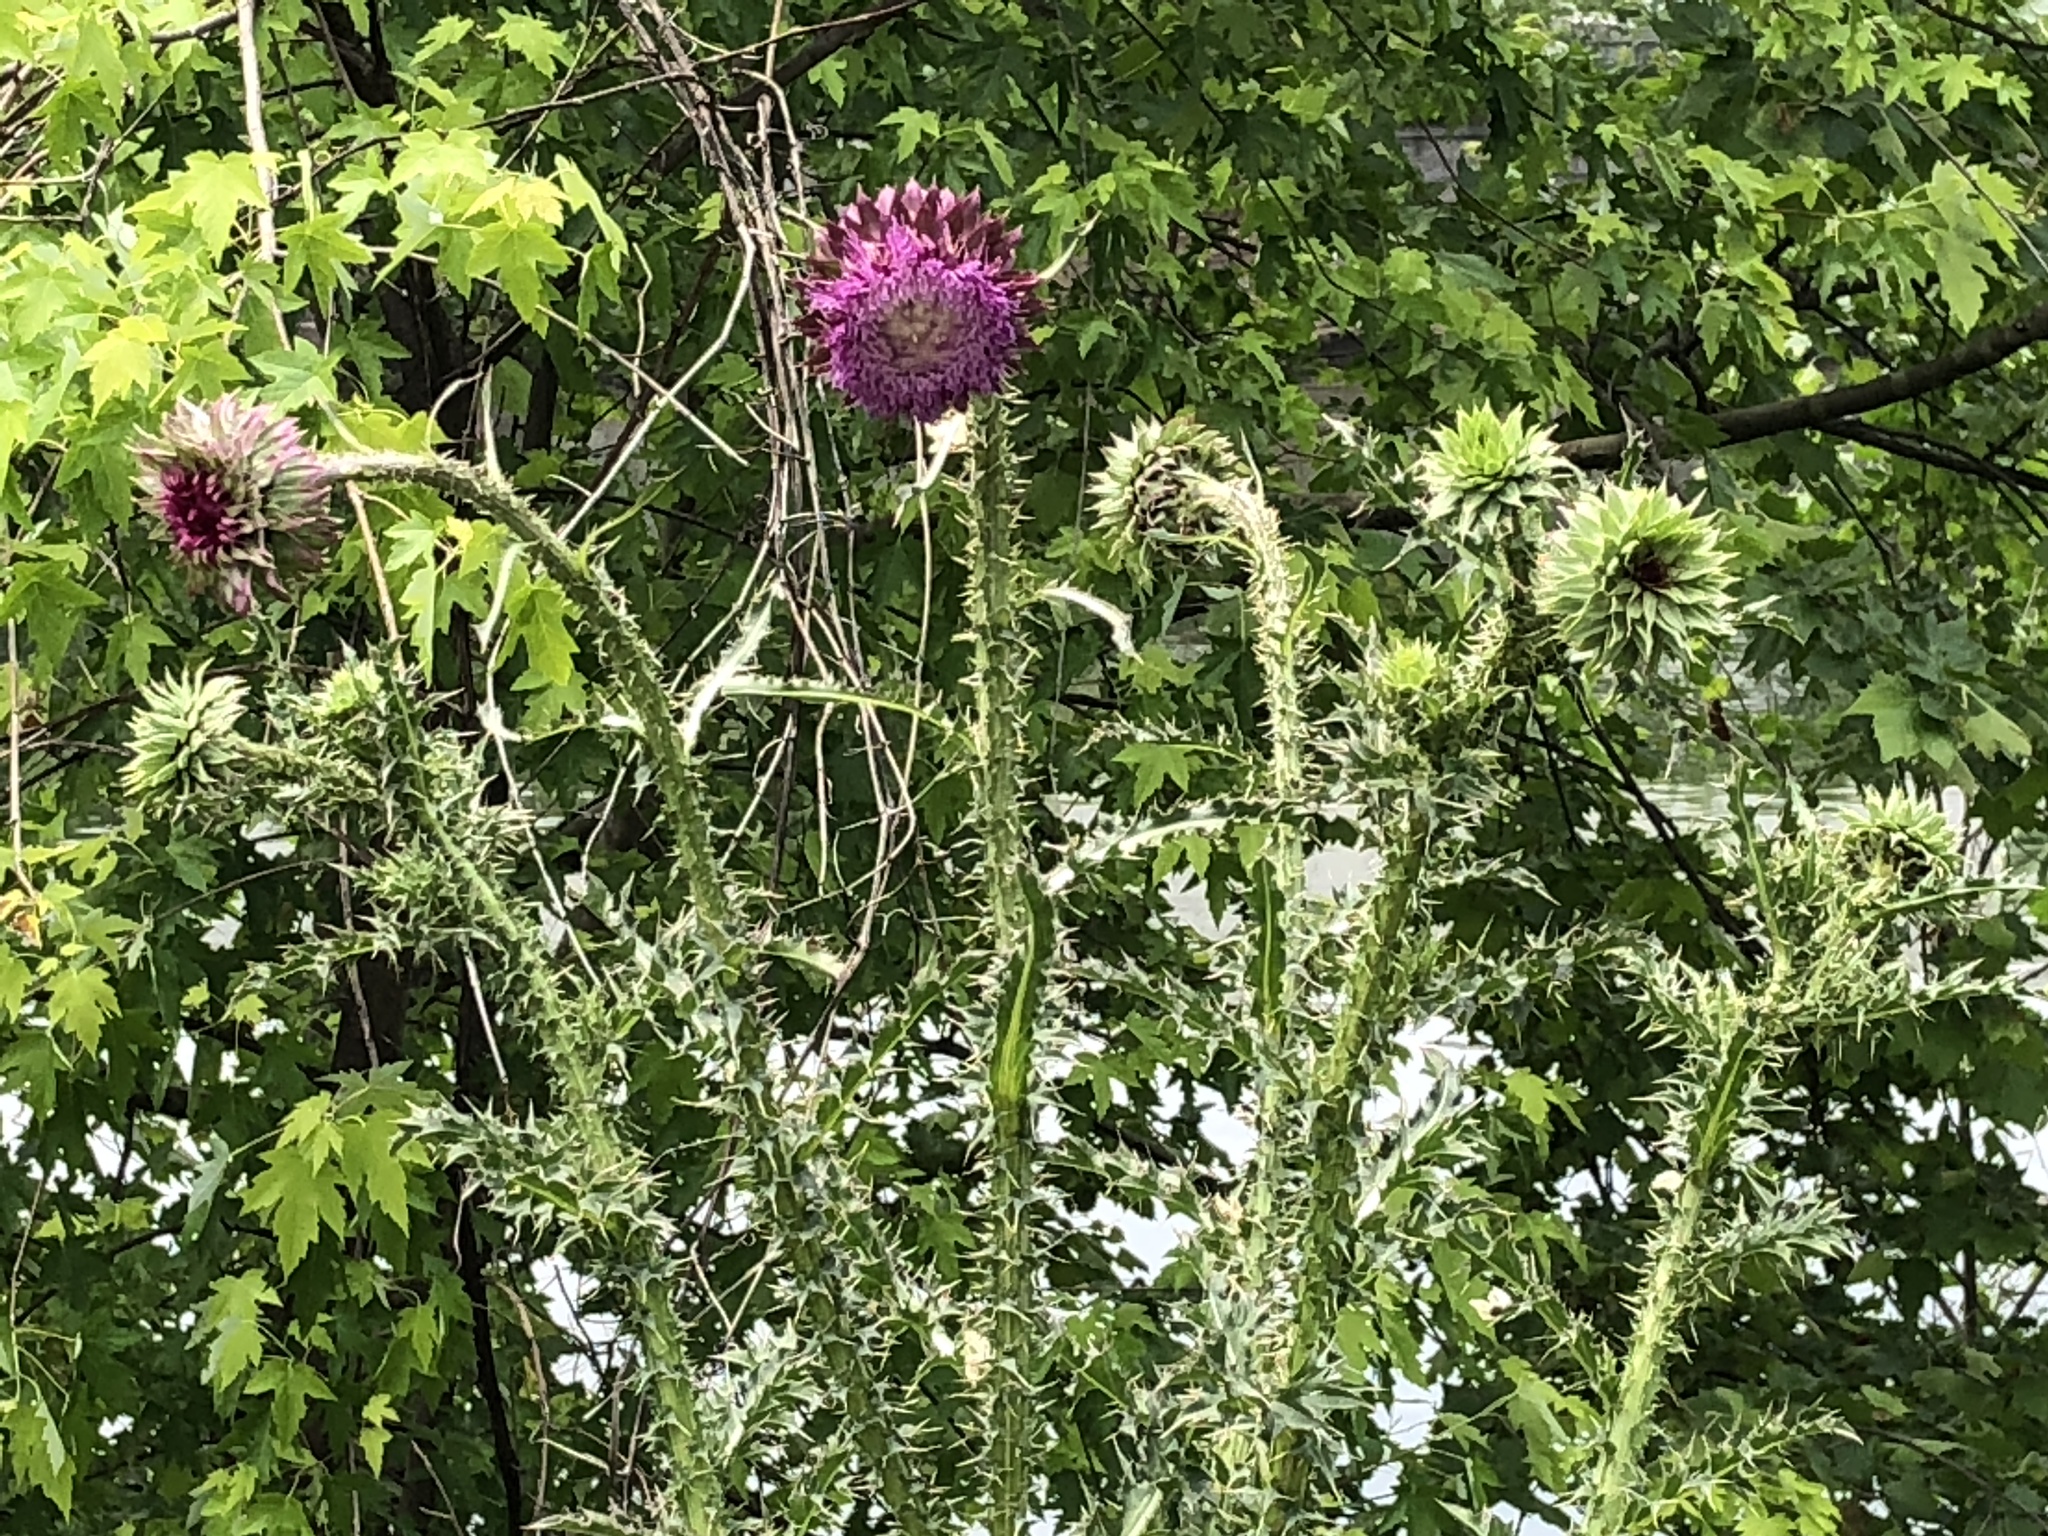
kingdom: Plantae
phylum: Tracheophyta
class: Magnoliopsida
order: Asterales
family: Asteraceae
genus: Carduus
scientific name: Carduus nutans
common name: Musk thistle
